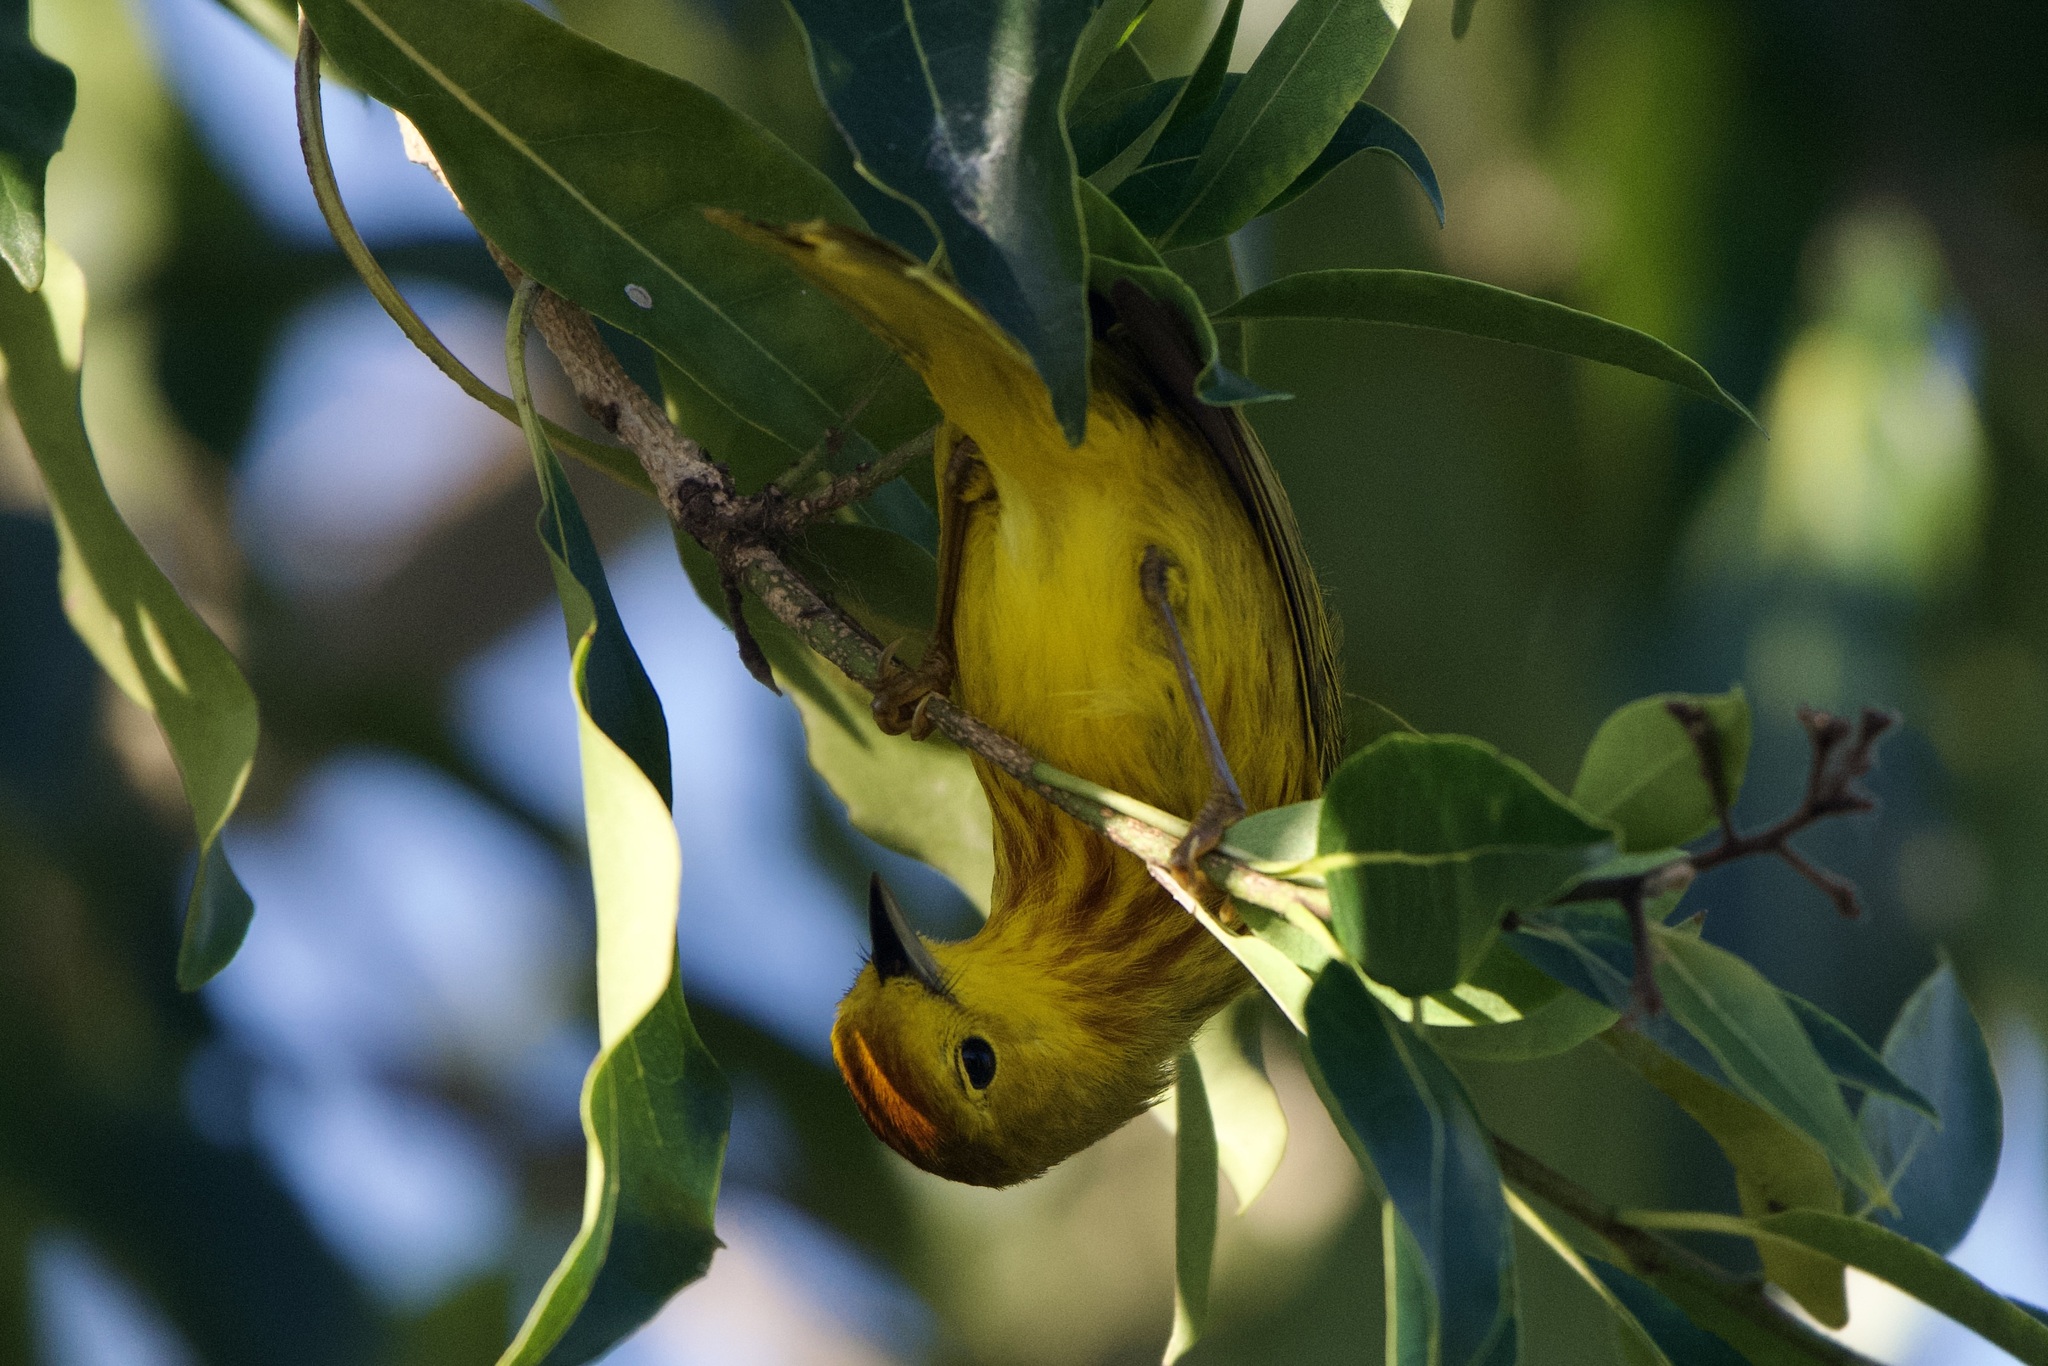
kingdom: Animalia
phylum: Chordata
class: Aves
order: Passeriformes
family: Parulidae
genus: Setophaga
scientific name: Setophaga petechia
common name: Yellow warbler
